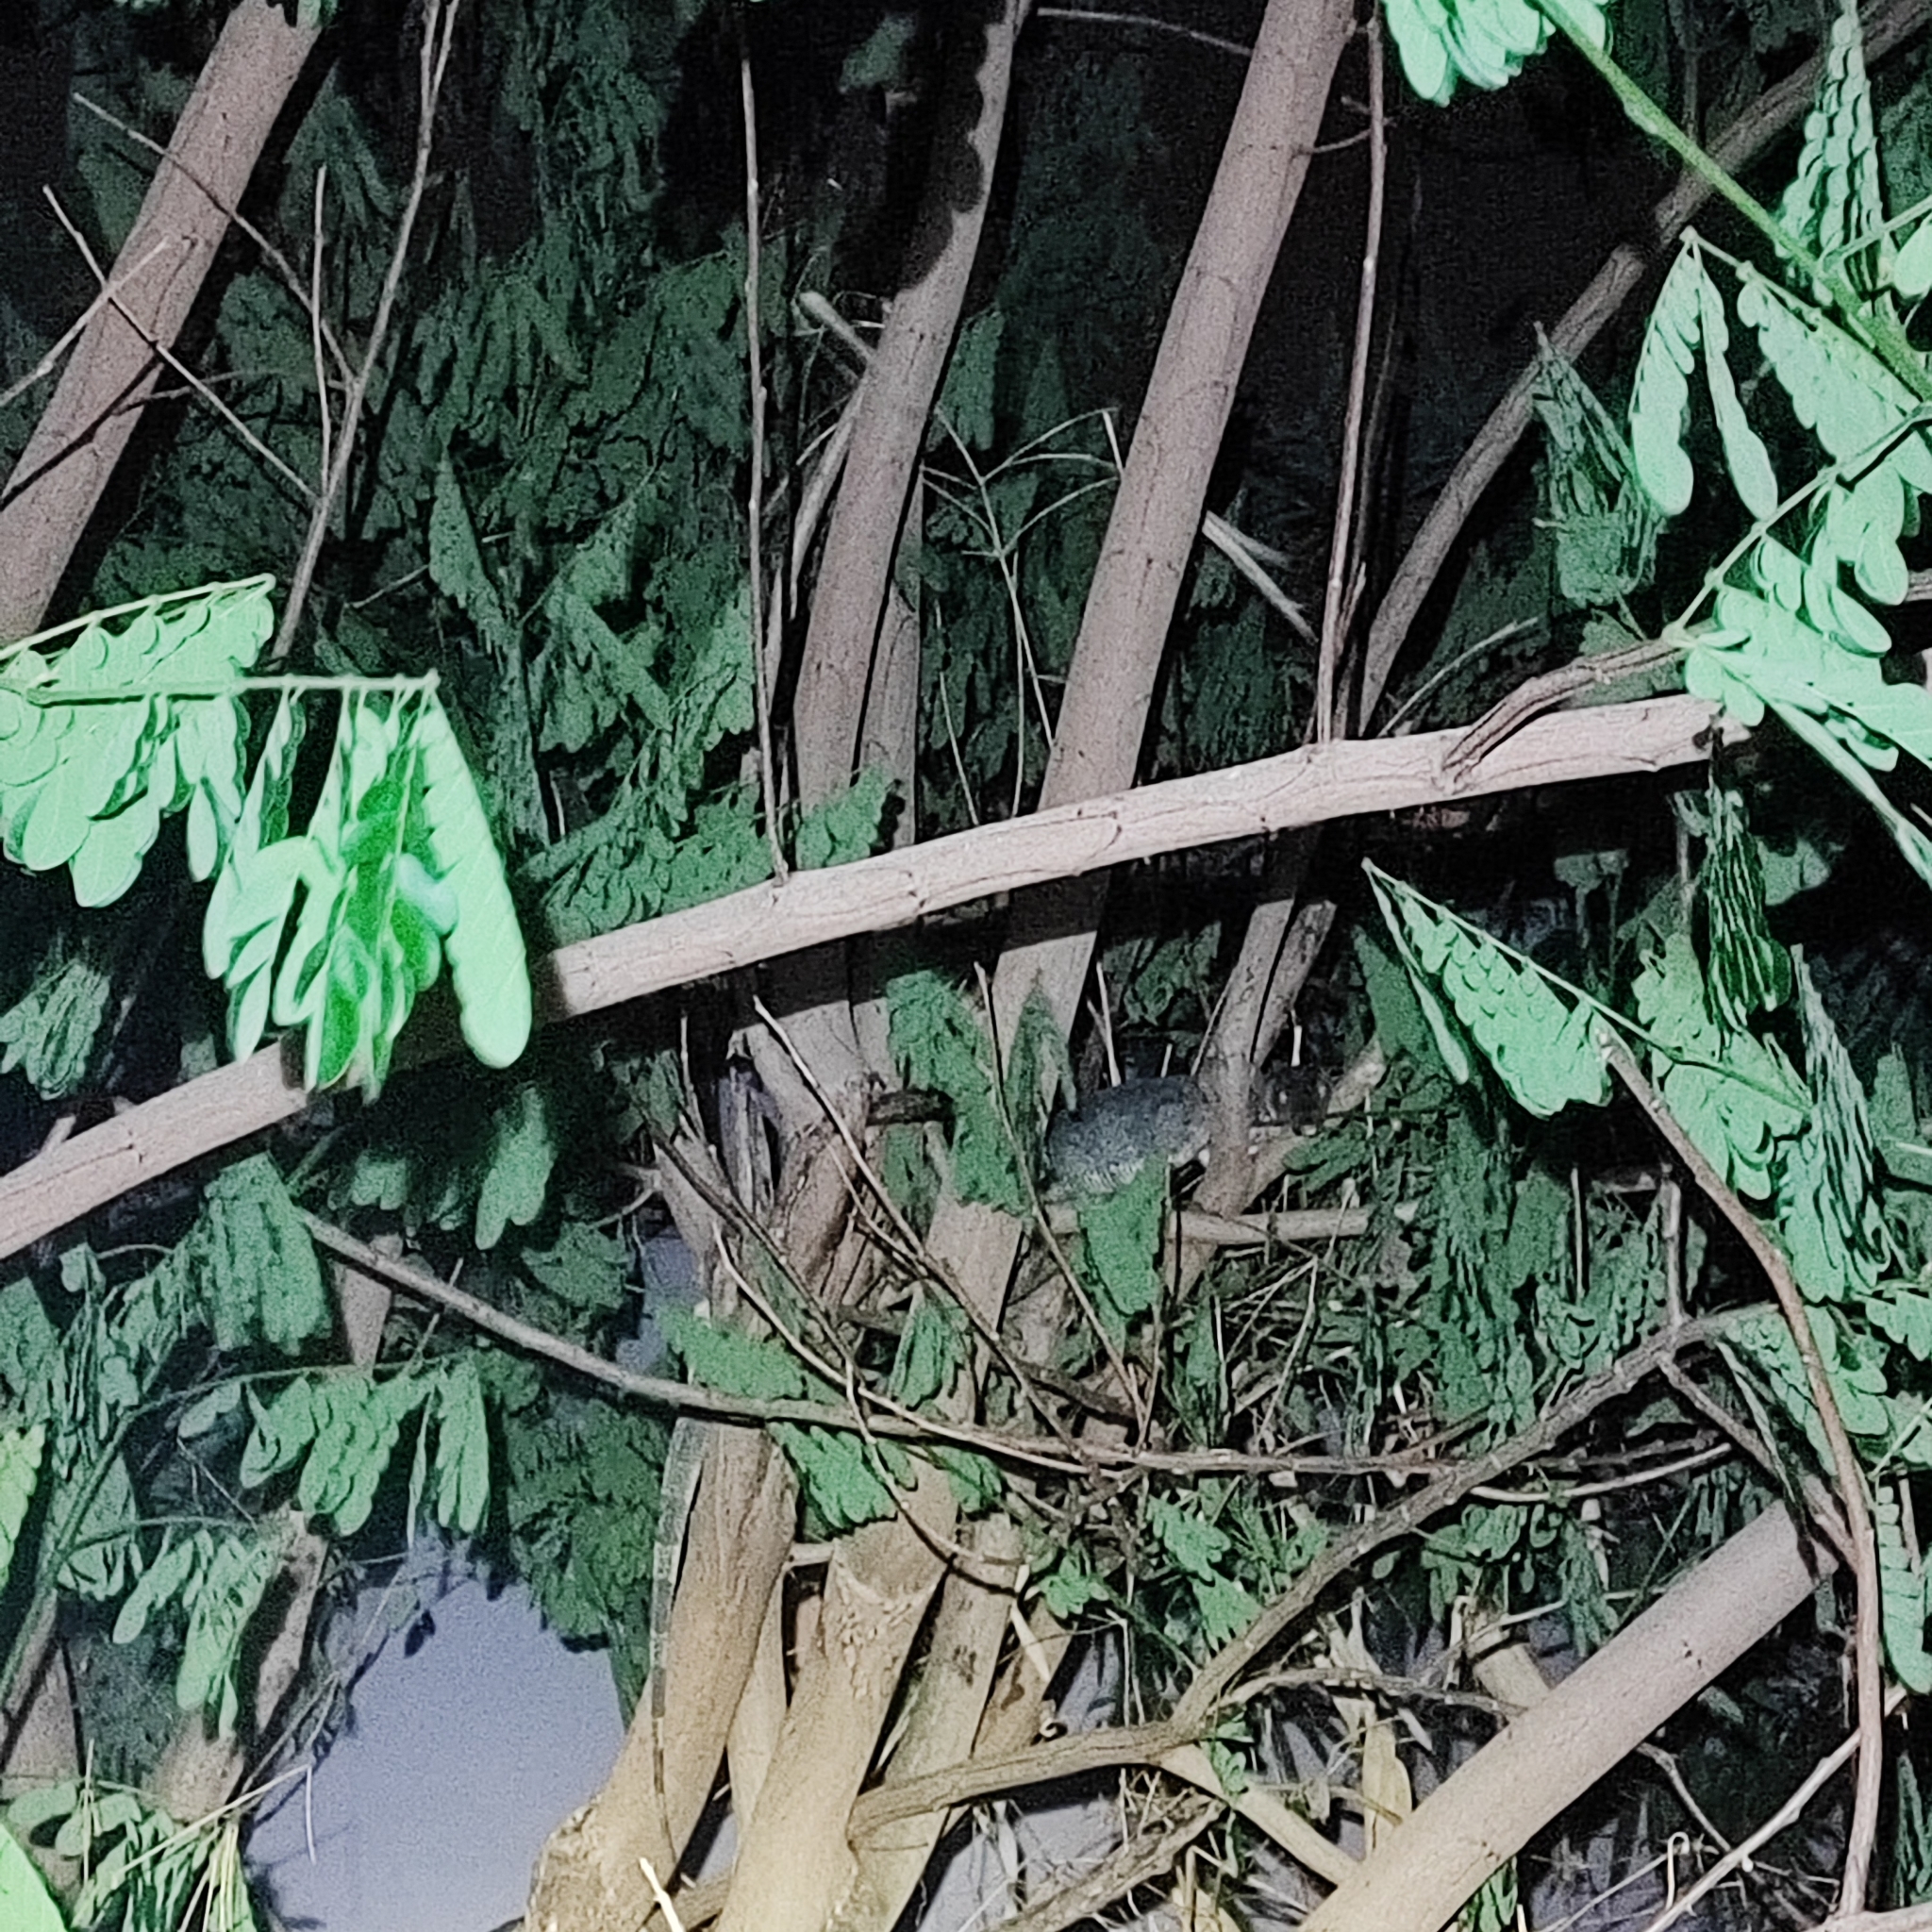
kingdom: Animalia
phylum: Chordata
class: Squamata
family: Varanidae
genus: Varanus
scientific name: Varanus salvator
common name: Common water monitor
